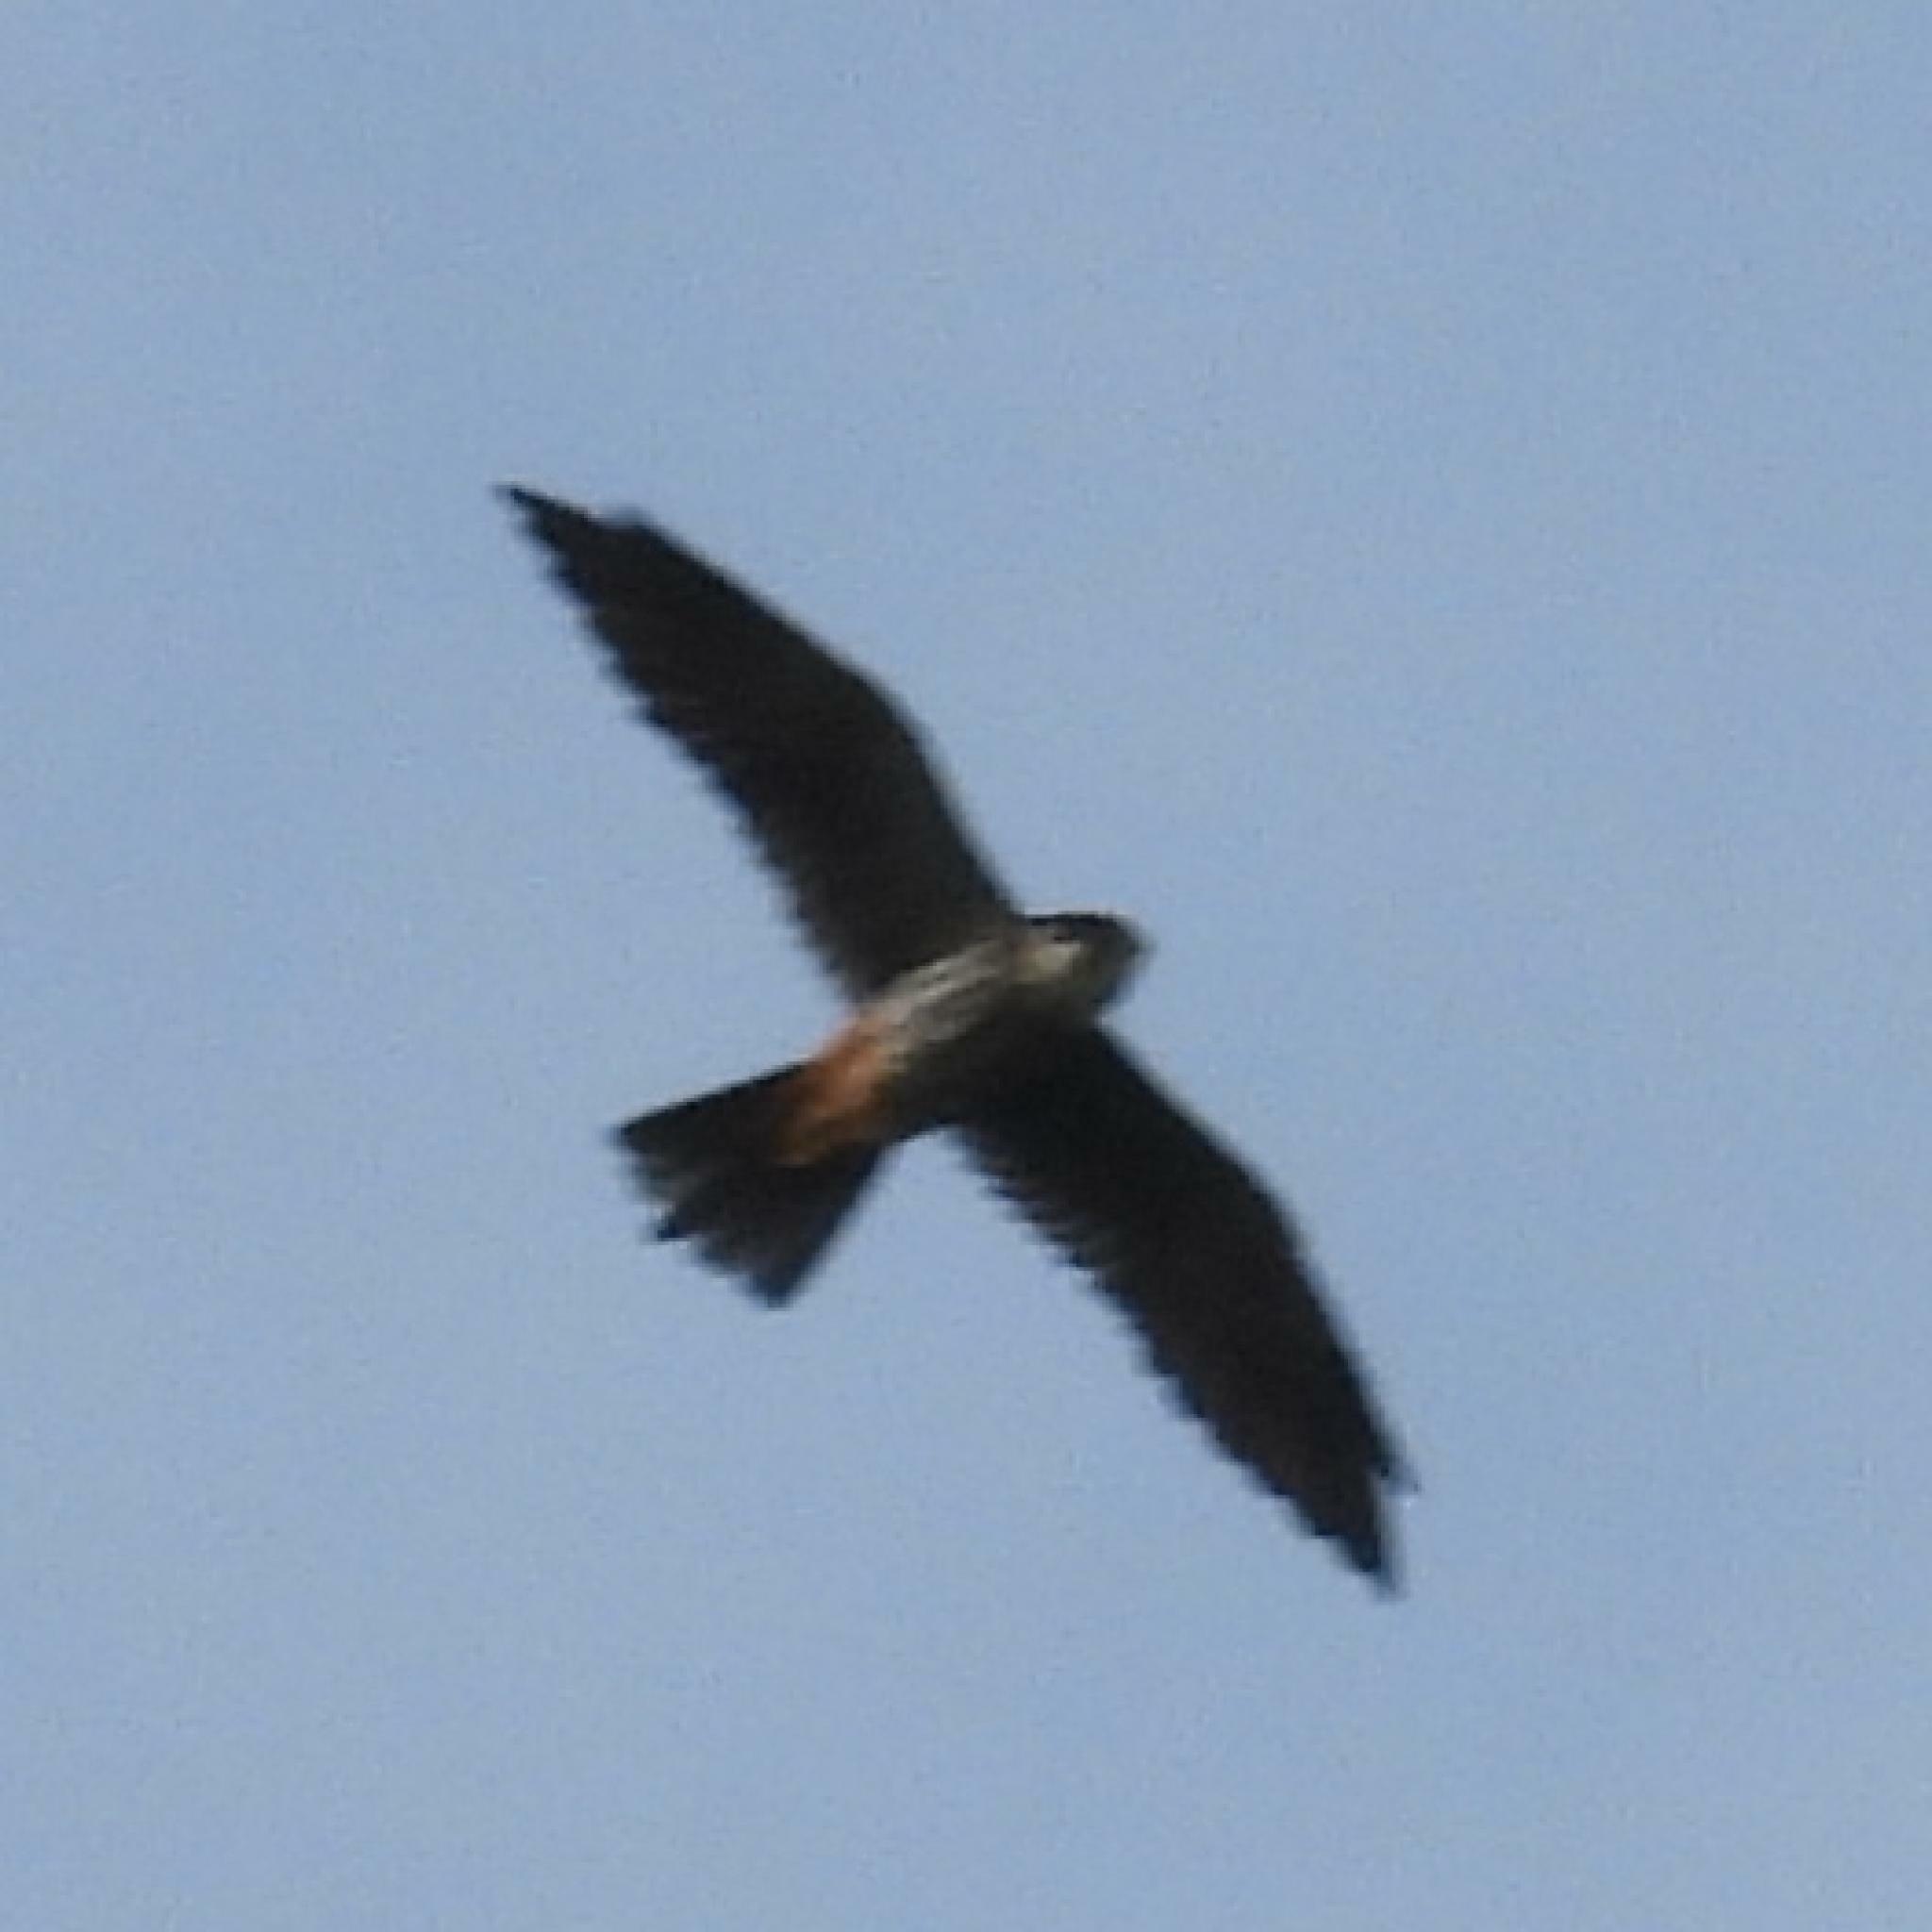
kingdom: Animalia
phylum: Chordata
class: Aves
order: Falconiformes
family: Falconidae
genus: Falco
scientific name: Falco amurensis
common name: Amur falcon
